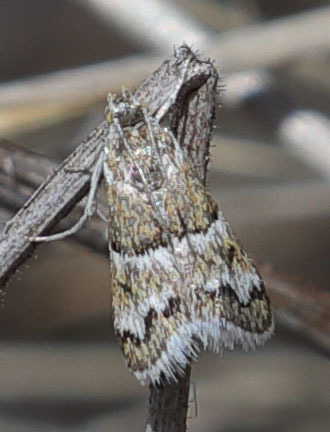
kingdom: Animalia
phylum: Arthropoda
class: Insecta
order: Lepidoptera
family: Crambidae
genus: Nannobotys
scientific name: Nannobotys commortalis
